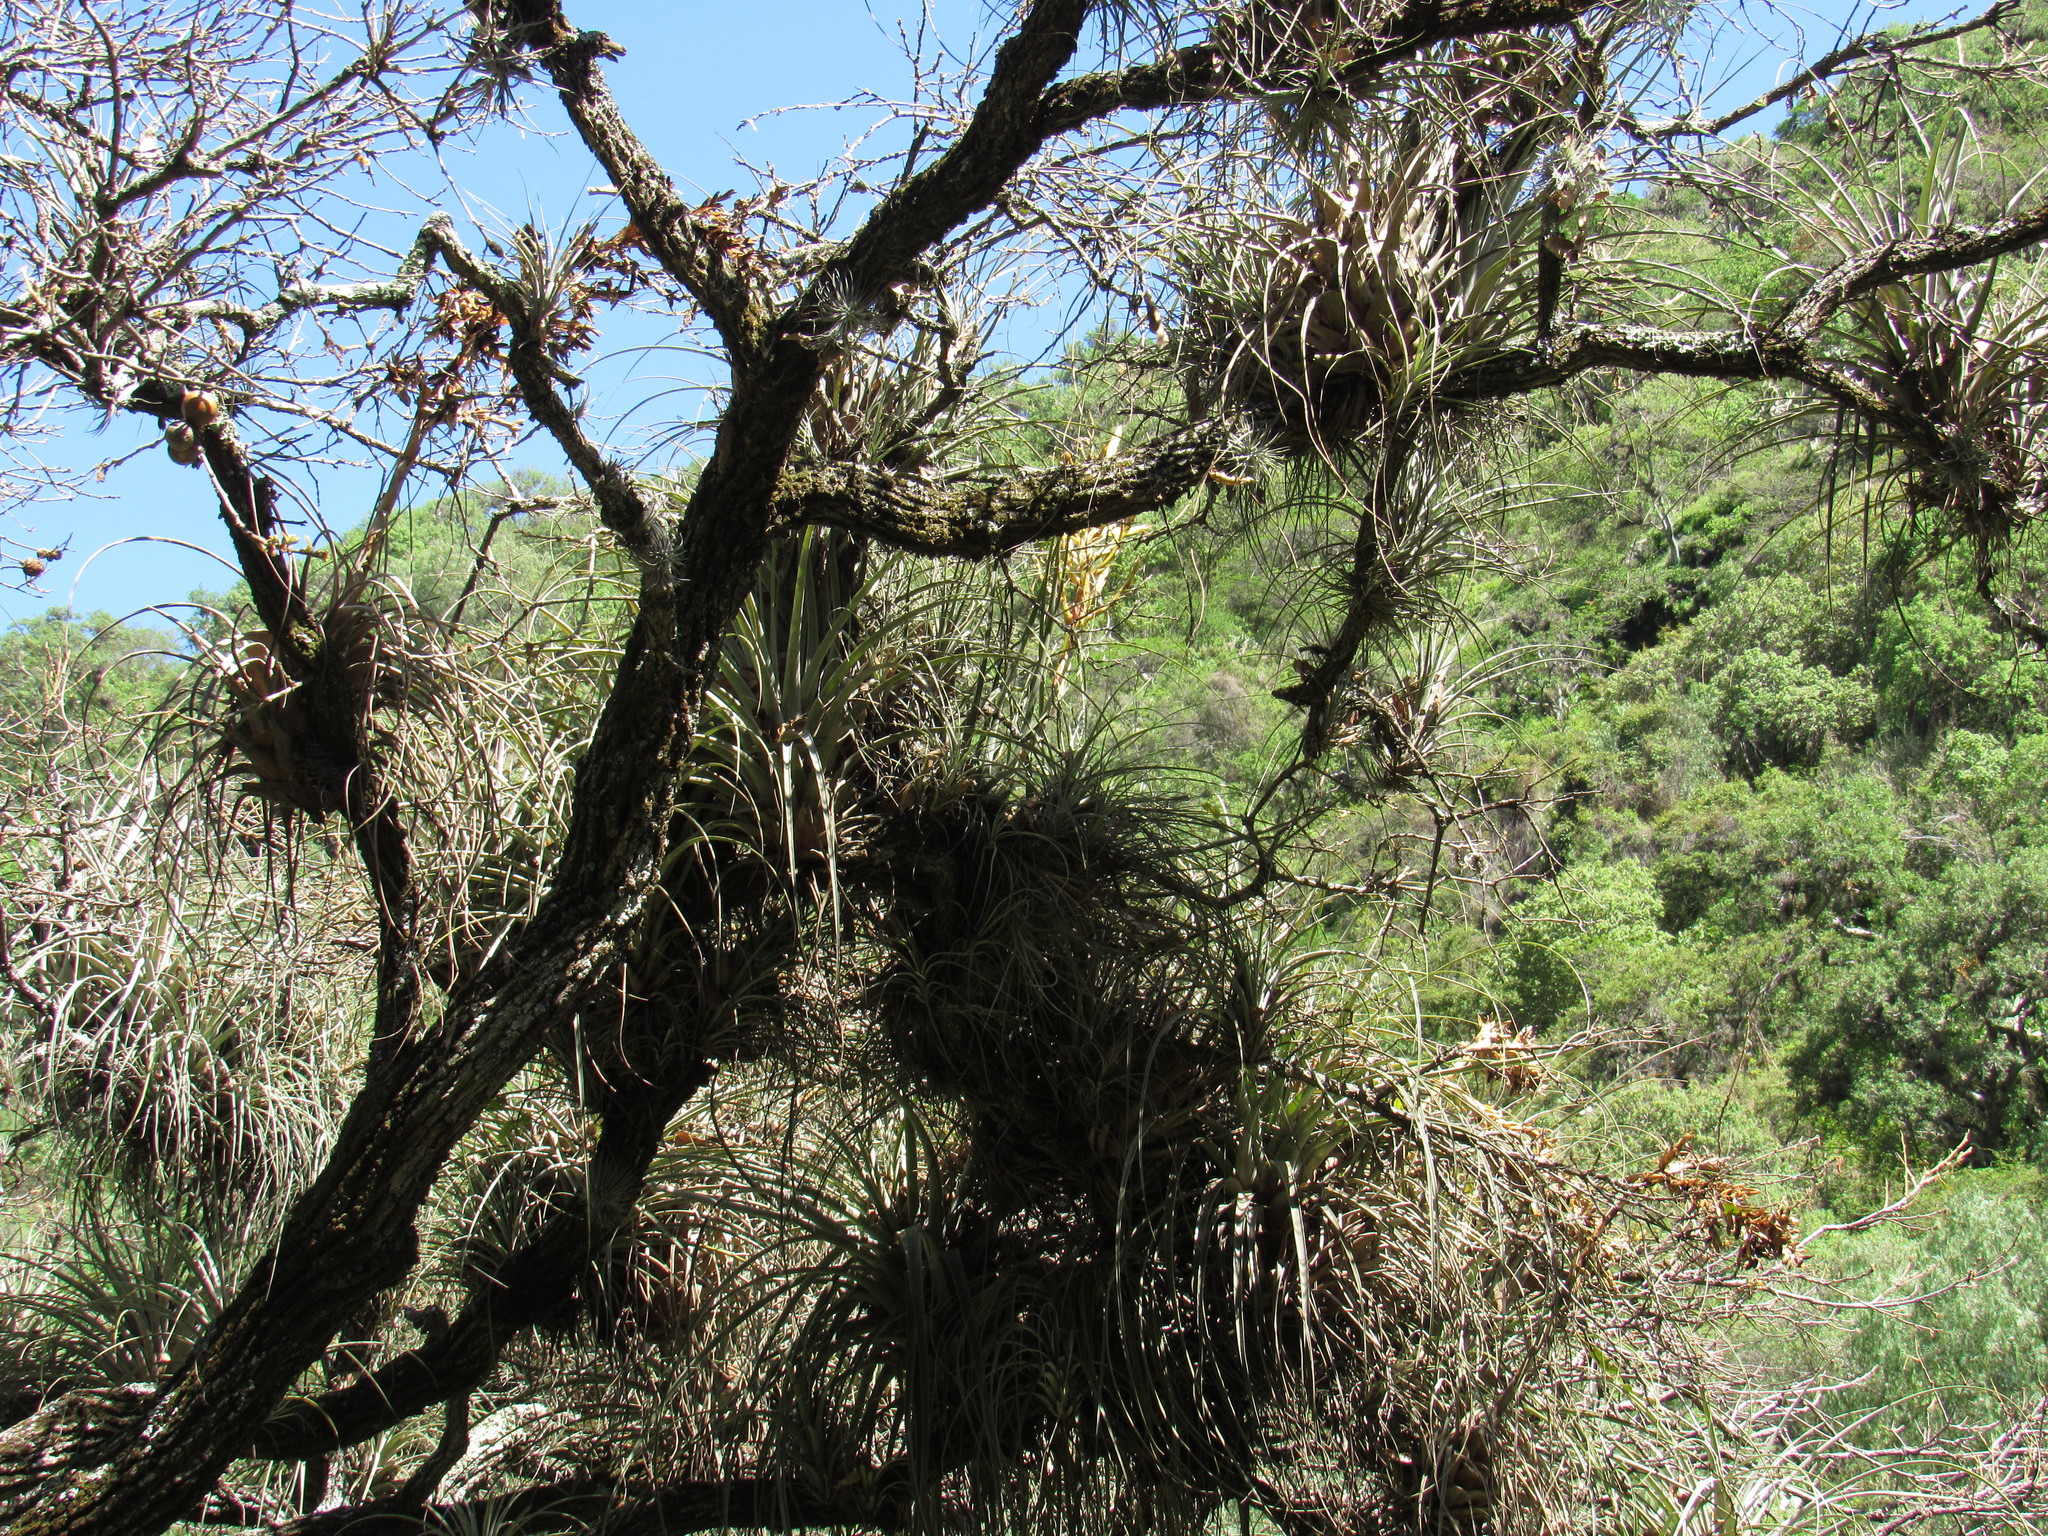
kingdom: Plantae
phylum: Tracheophyta
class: Liliopsida
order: Poales
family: Bromeliaceae
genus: Tillandsia
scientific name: Tillandsia fasciculata
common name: Giant airplant
